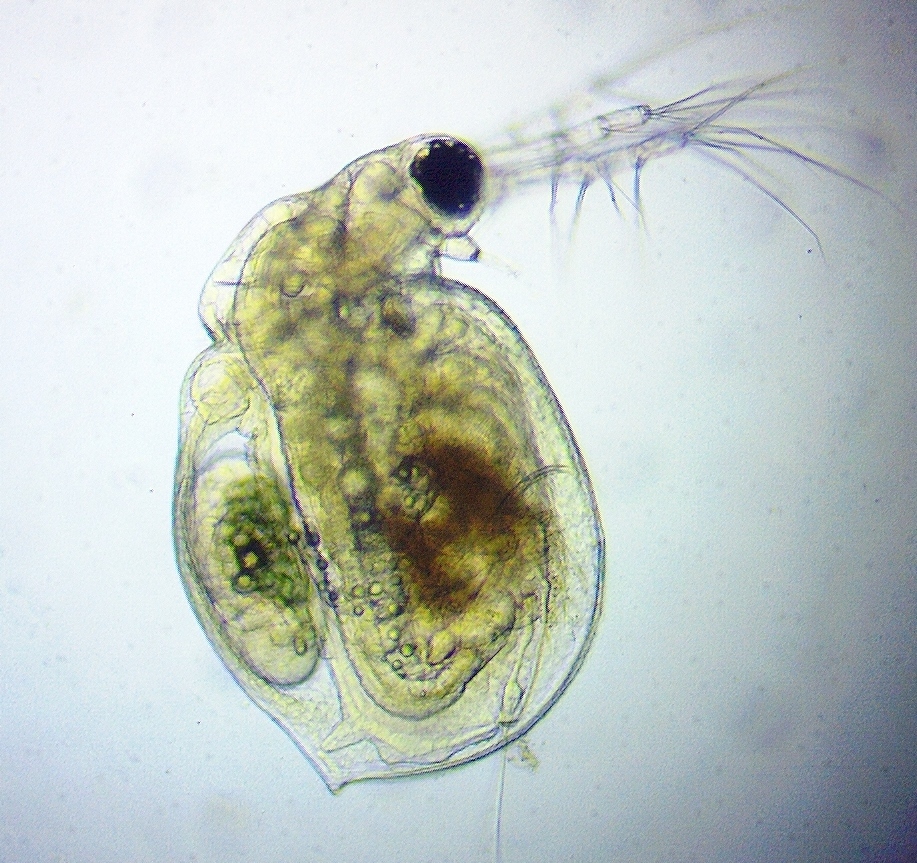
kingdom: Animalia
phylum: Arthropoda
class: Branchiopoda
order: Diplostraca
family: Daphniidae
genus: Ceriodaphnia
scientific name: Ceriodaphnia dubia
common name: Water flea
